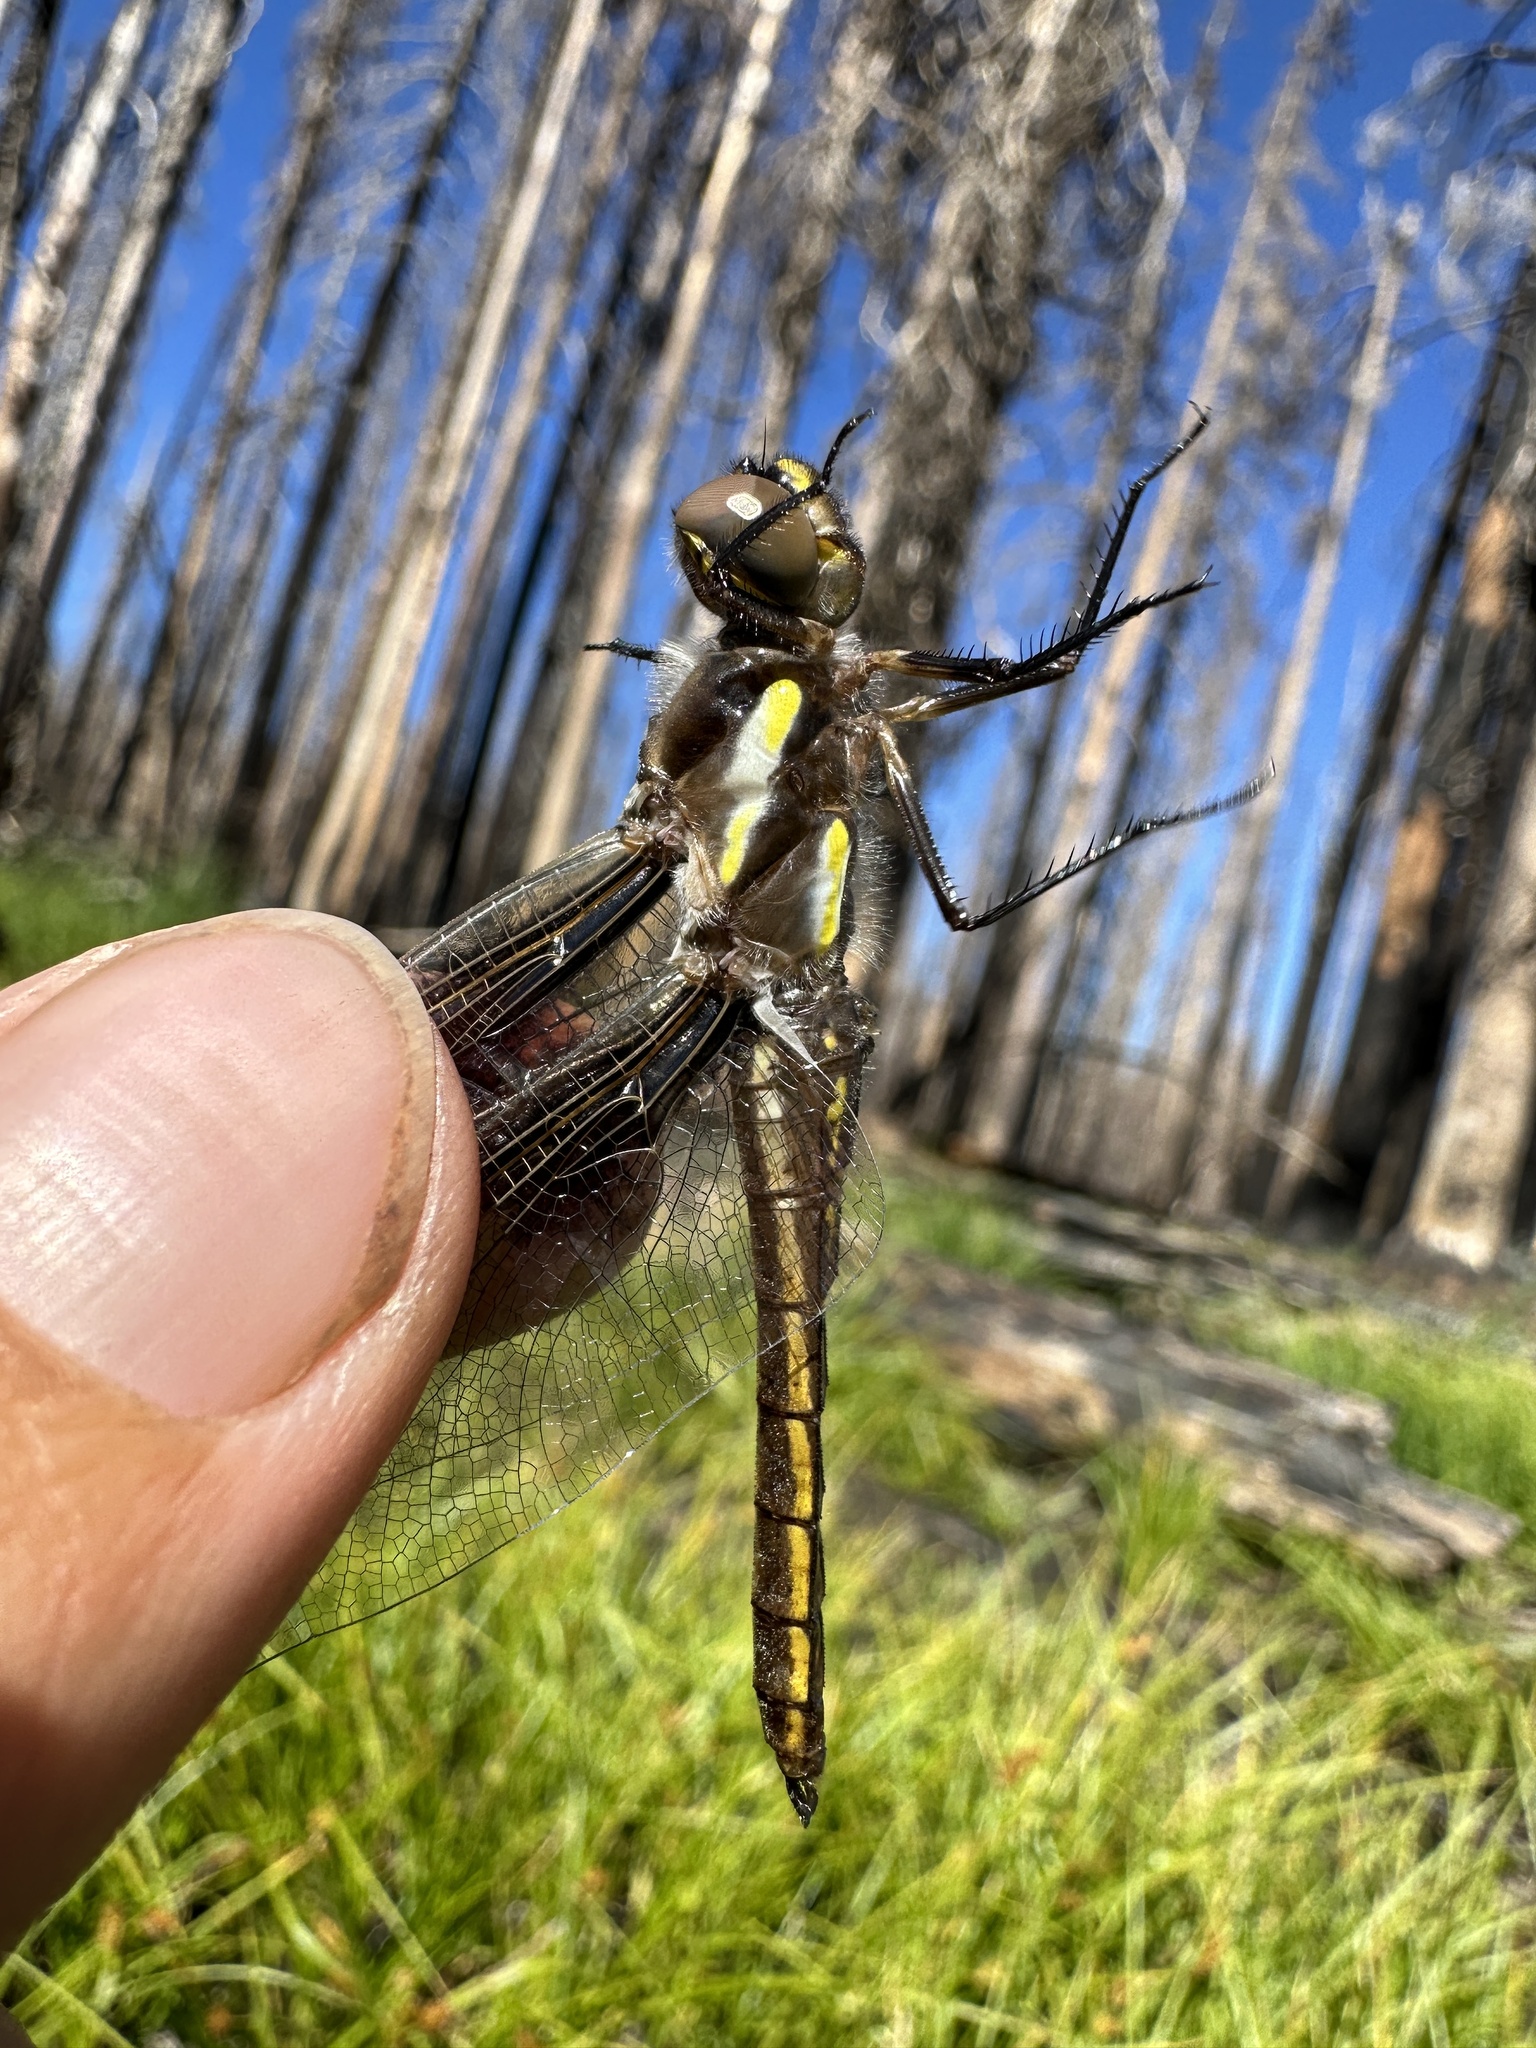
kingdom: Animalia
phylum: Arthropoda
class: Insecta
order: Odonata
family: Libellulidae
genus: Libellula
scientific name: Libellula pulchella
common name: Twelve-spotted skimmer
